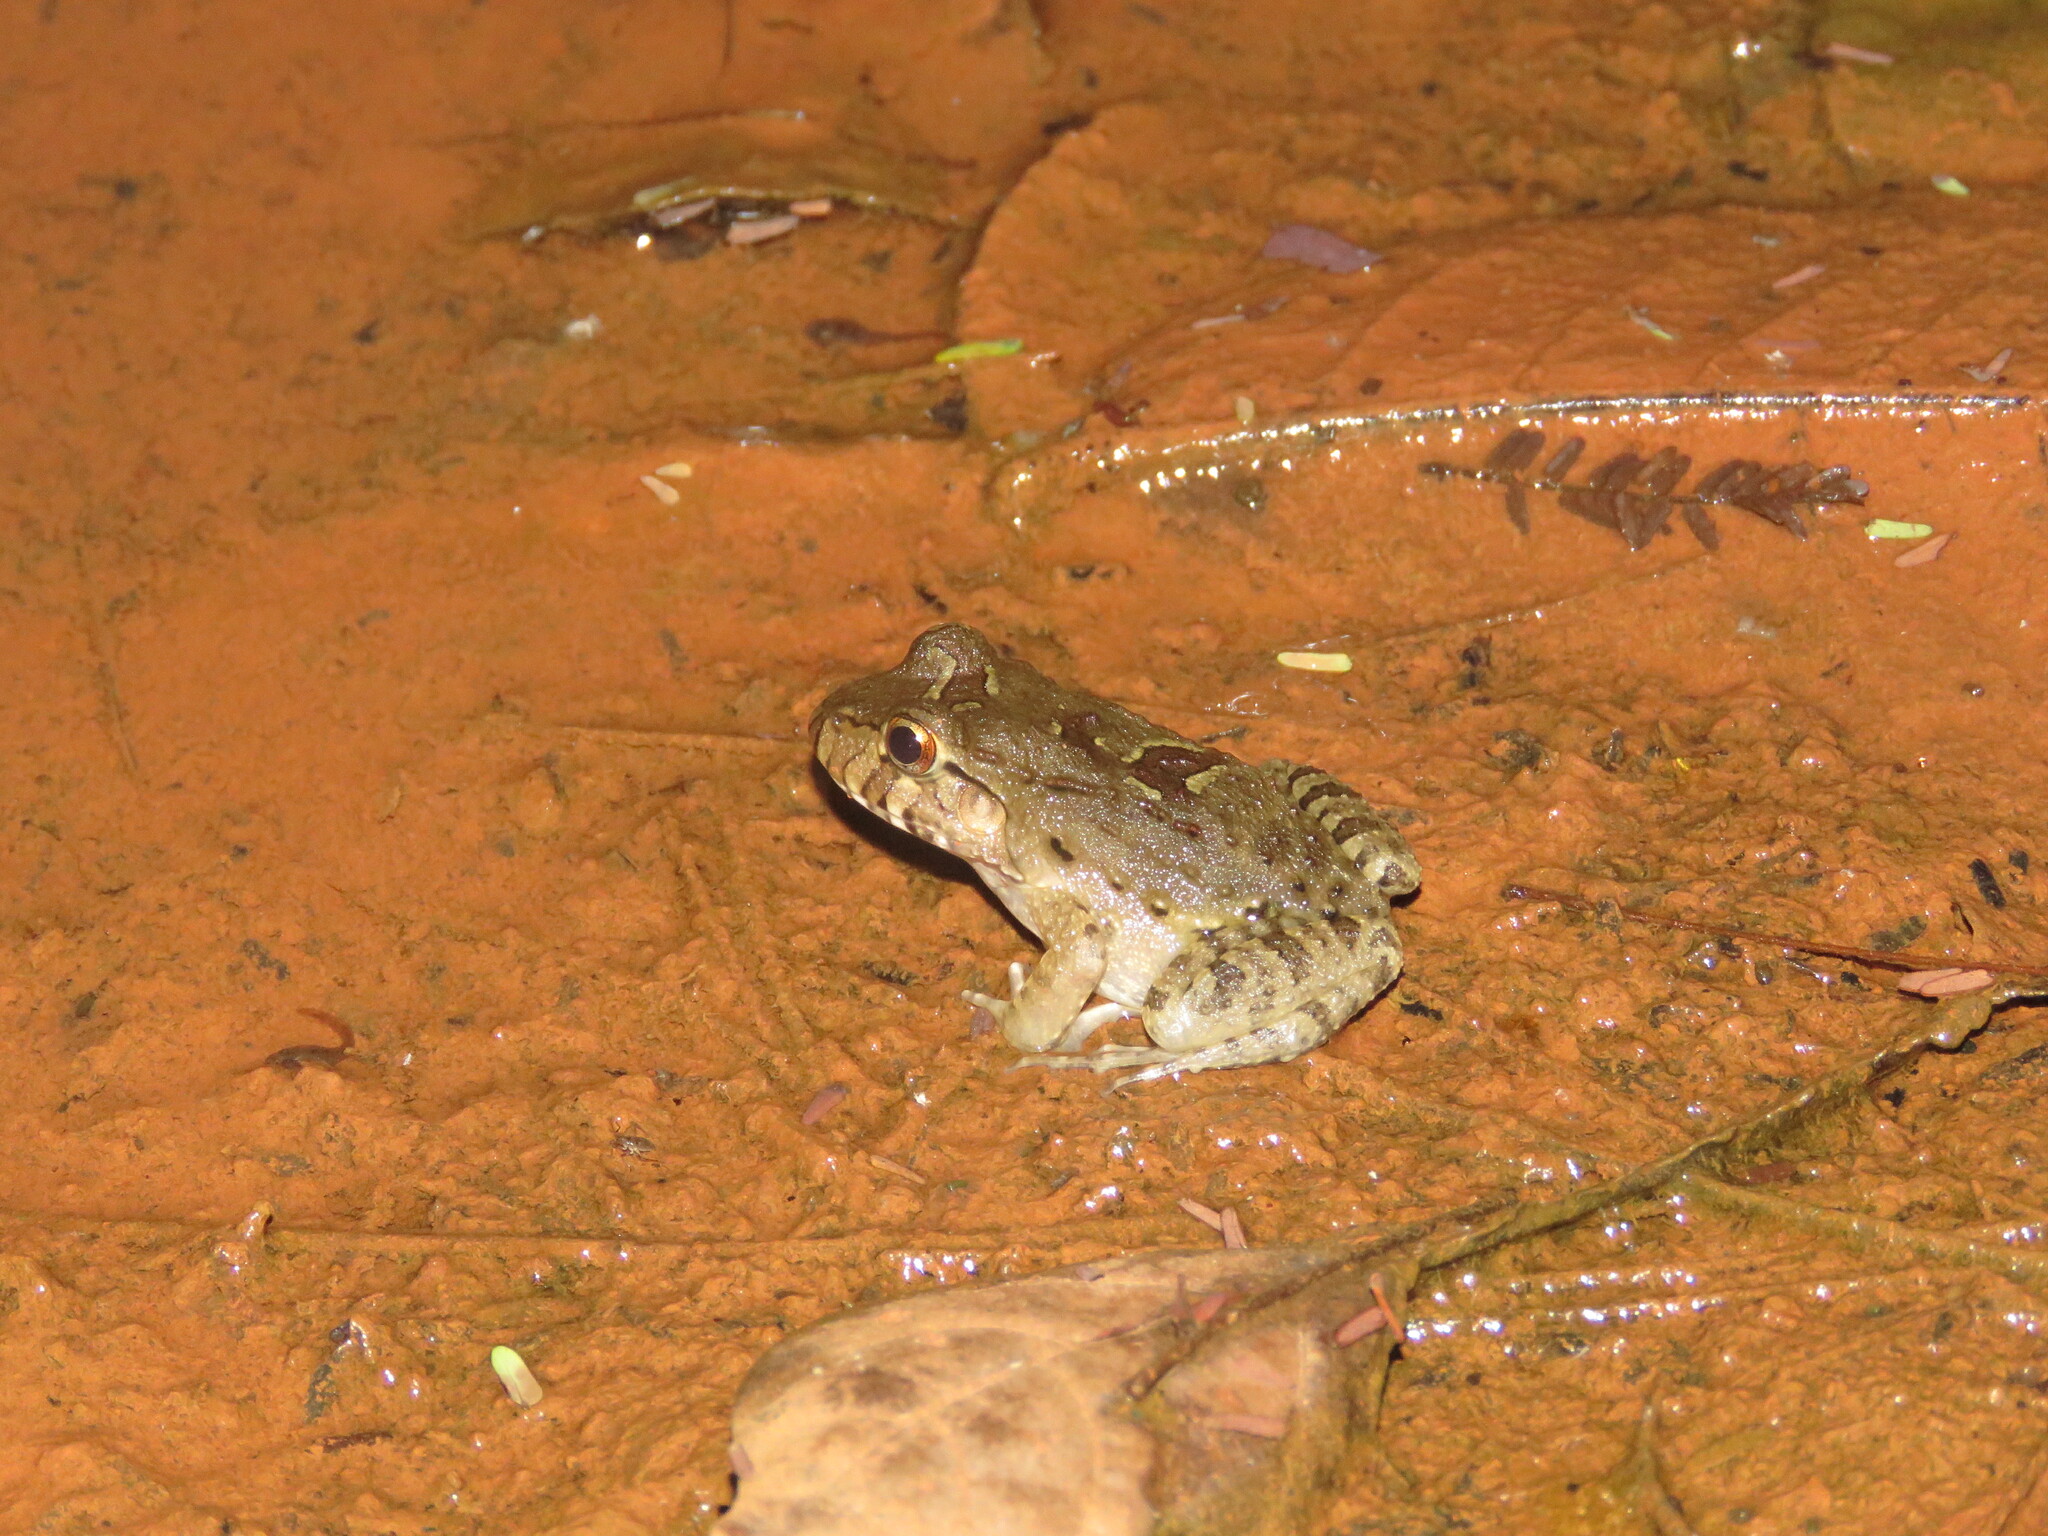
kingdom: Animalia
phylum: Chordata
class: Amphibia
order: Anura
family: Leptodactylidae
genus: Leptodactylus
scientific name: Leptodactylus knudseni
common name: Knudsen's frog
